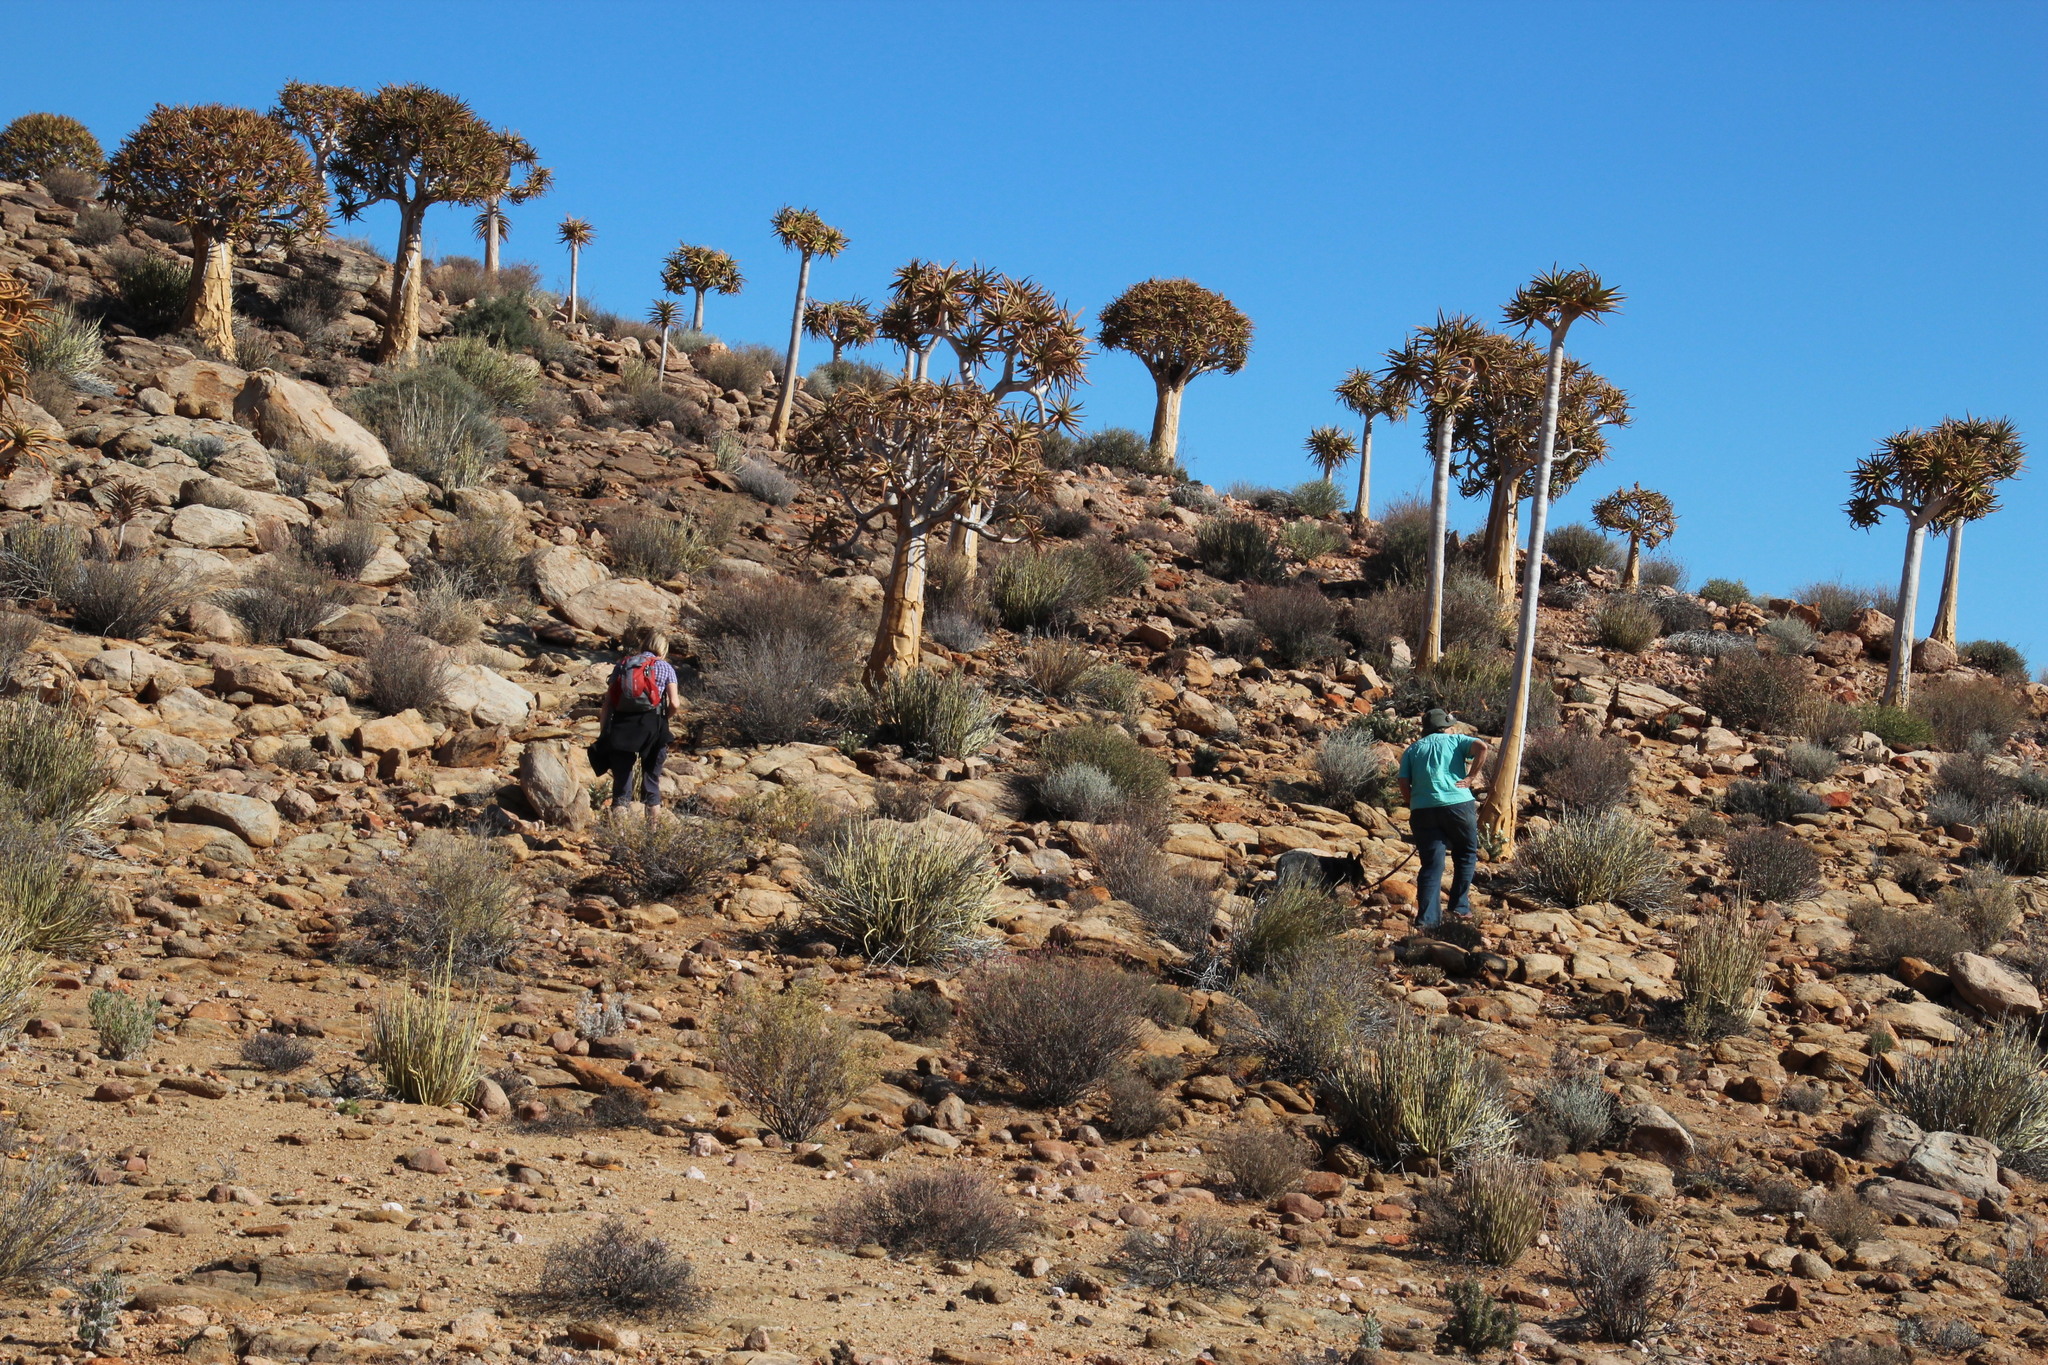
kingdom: Plantae
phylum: Tracheophyta
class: Magnoliopsida
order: Saxifragales
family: Crassulaceae
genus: Tylecodon
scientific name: Tylecodon wallichii
